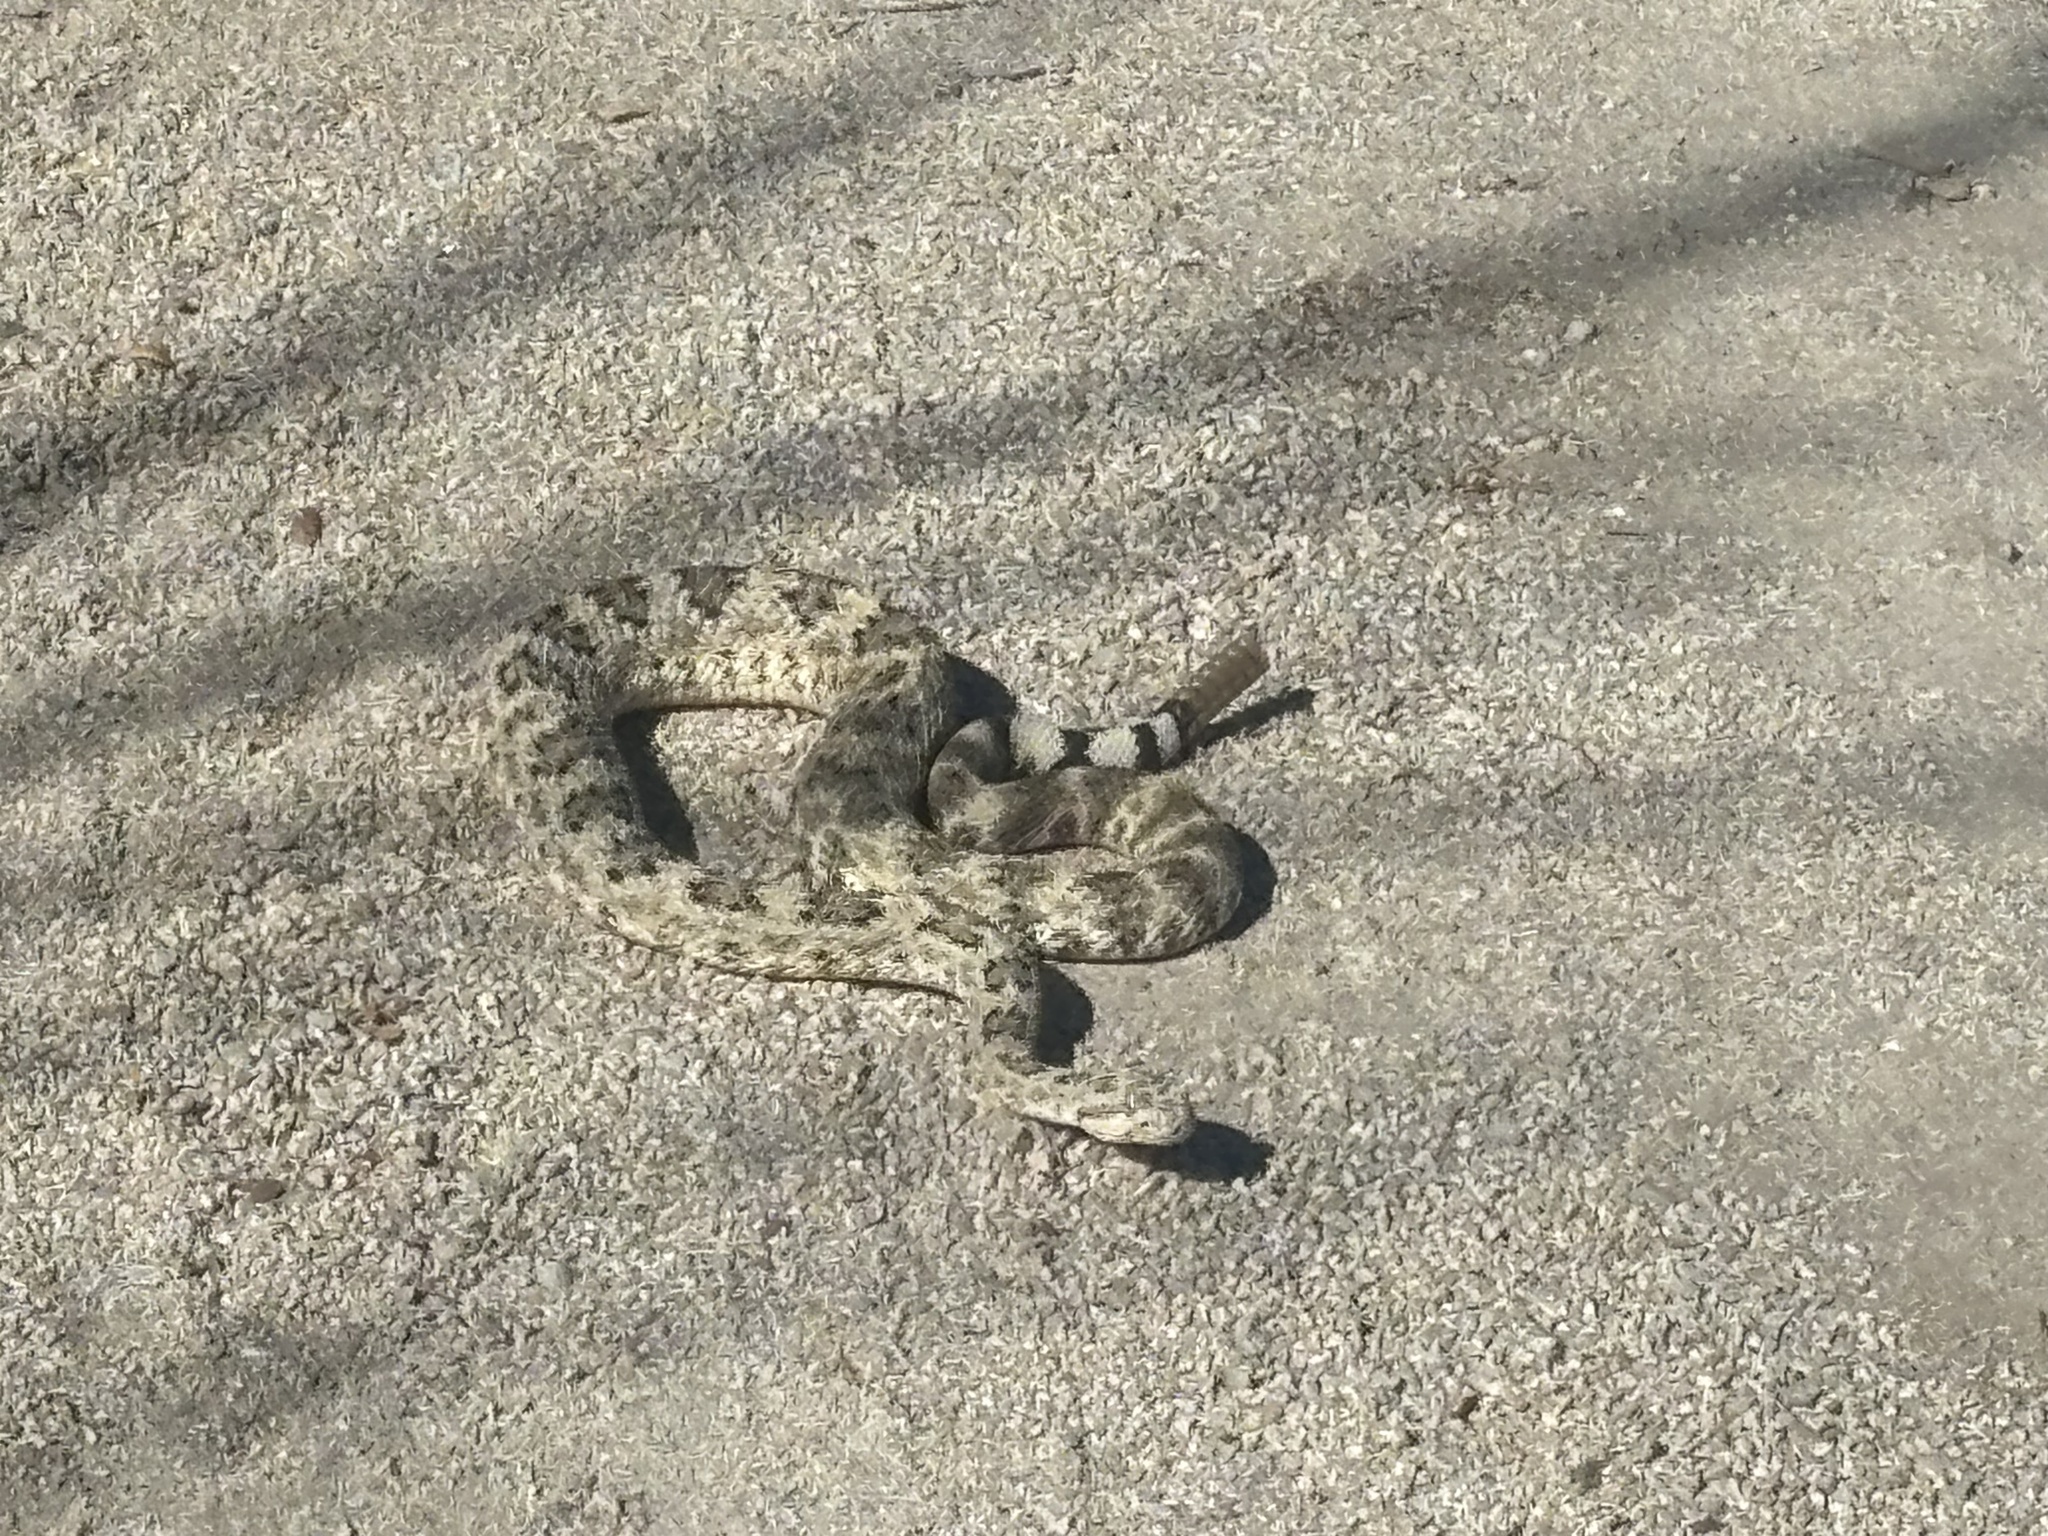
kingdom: Animalia
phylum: Chordata
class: Squamata
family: Viperidae
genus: Crotalus
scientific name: Crotalus mitchellii
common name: Speckled rattlesnake
